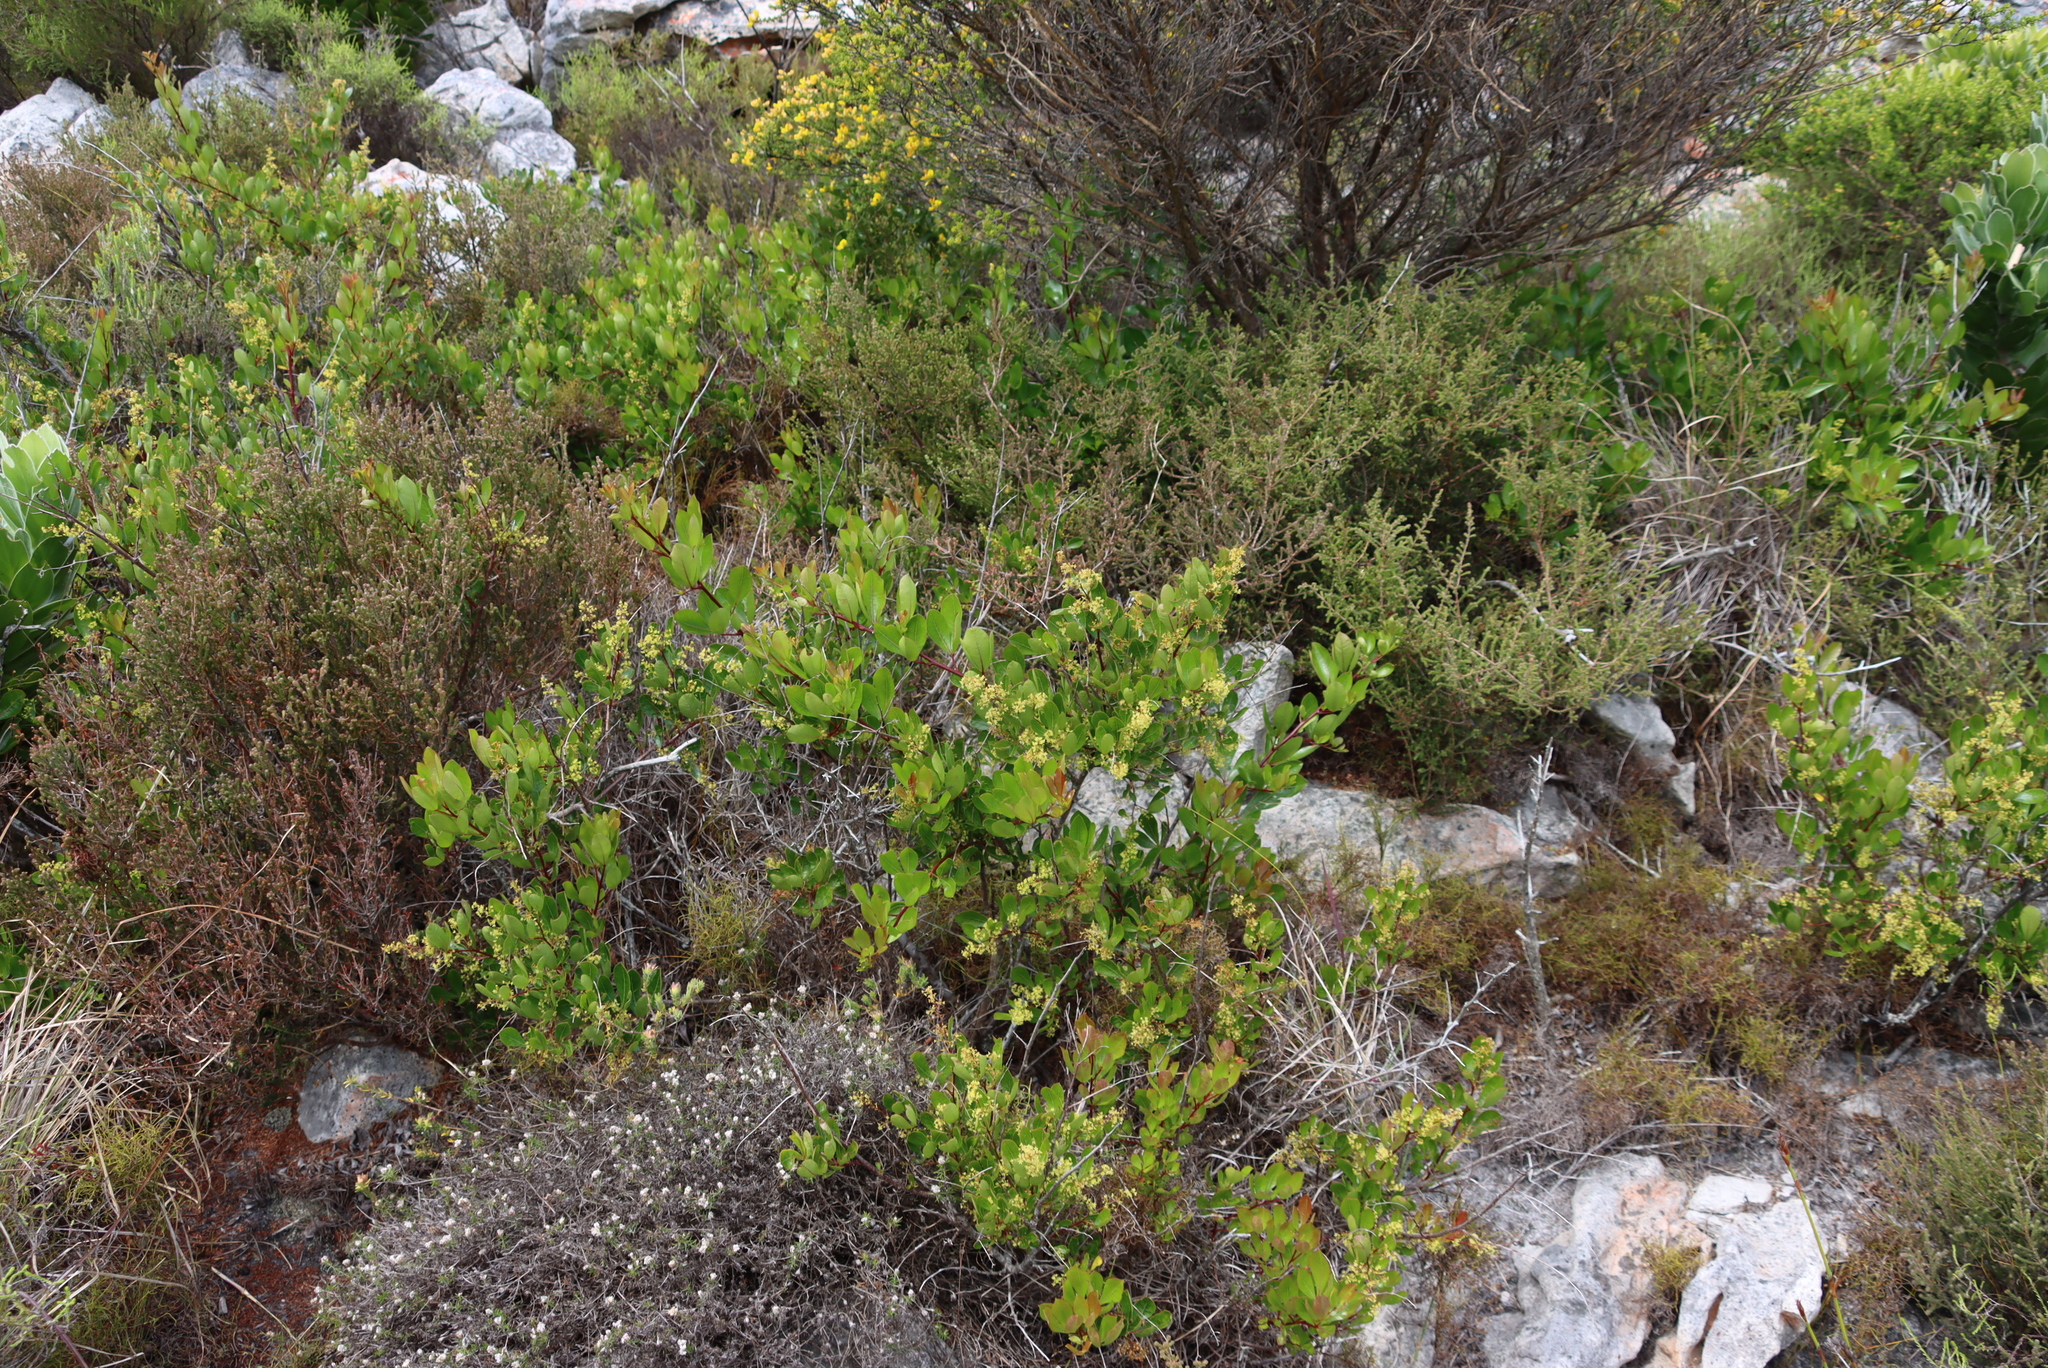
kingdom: Plantae
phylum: Tracheophyta
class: Magnoliopsida
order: Sapindales
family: Anacardiaceae
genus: Searsia
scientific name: Searsia laevigata
